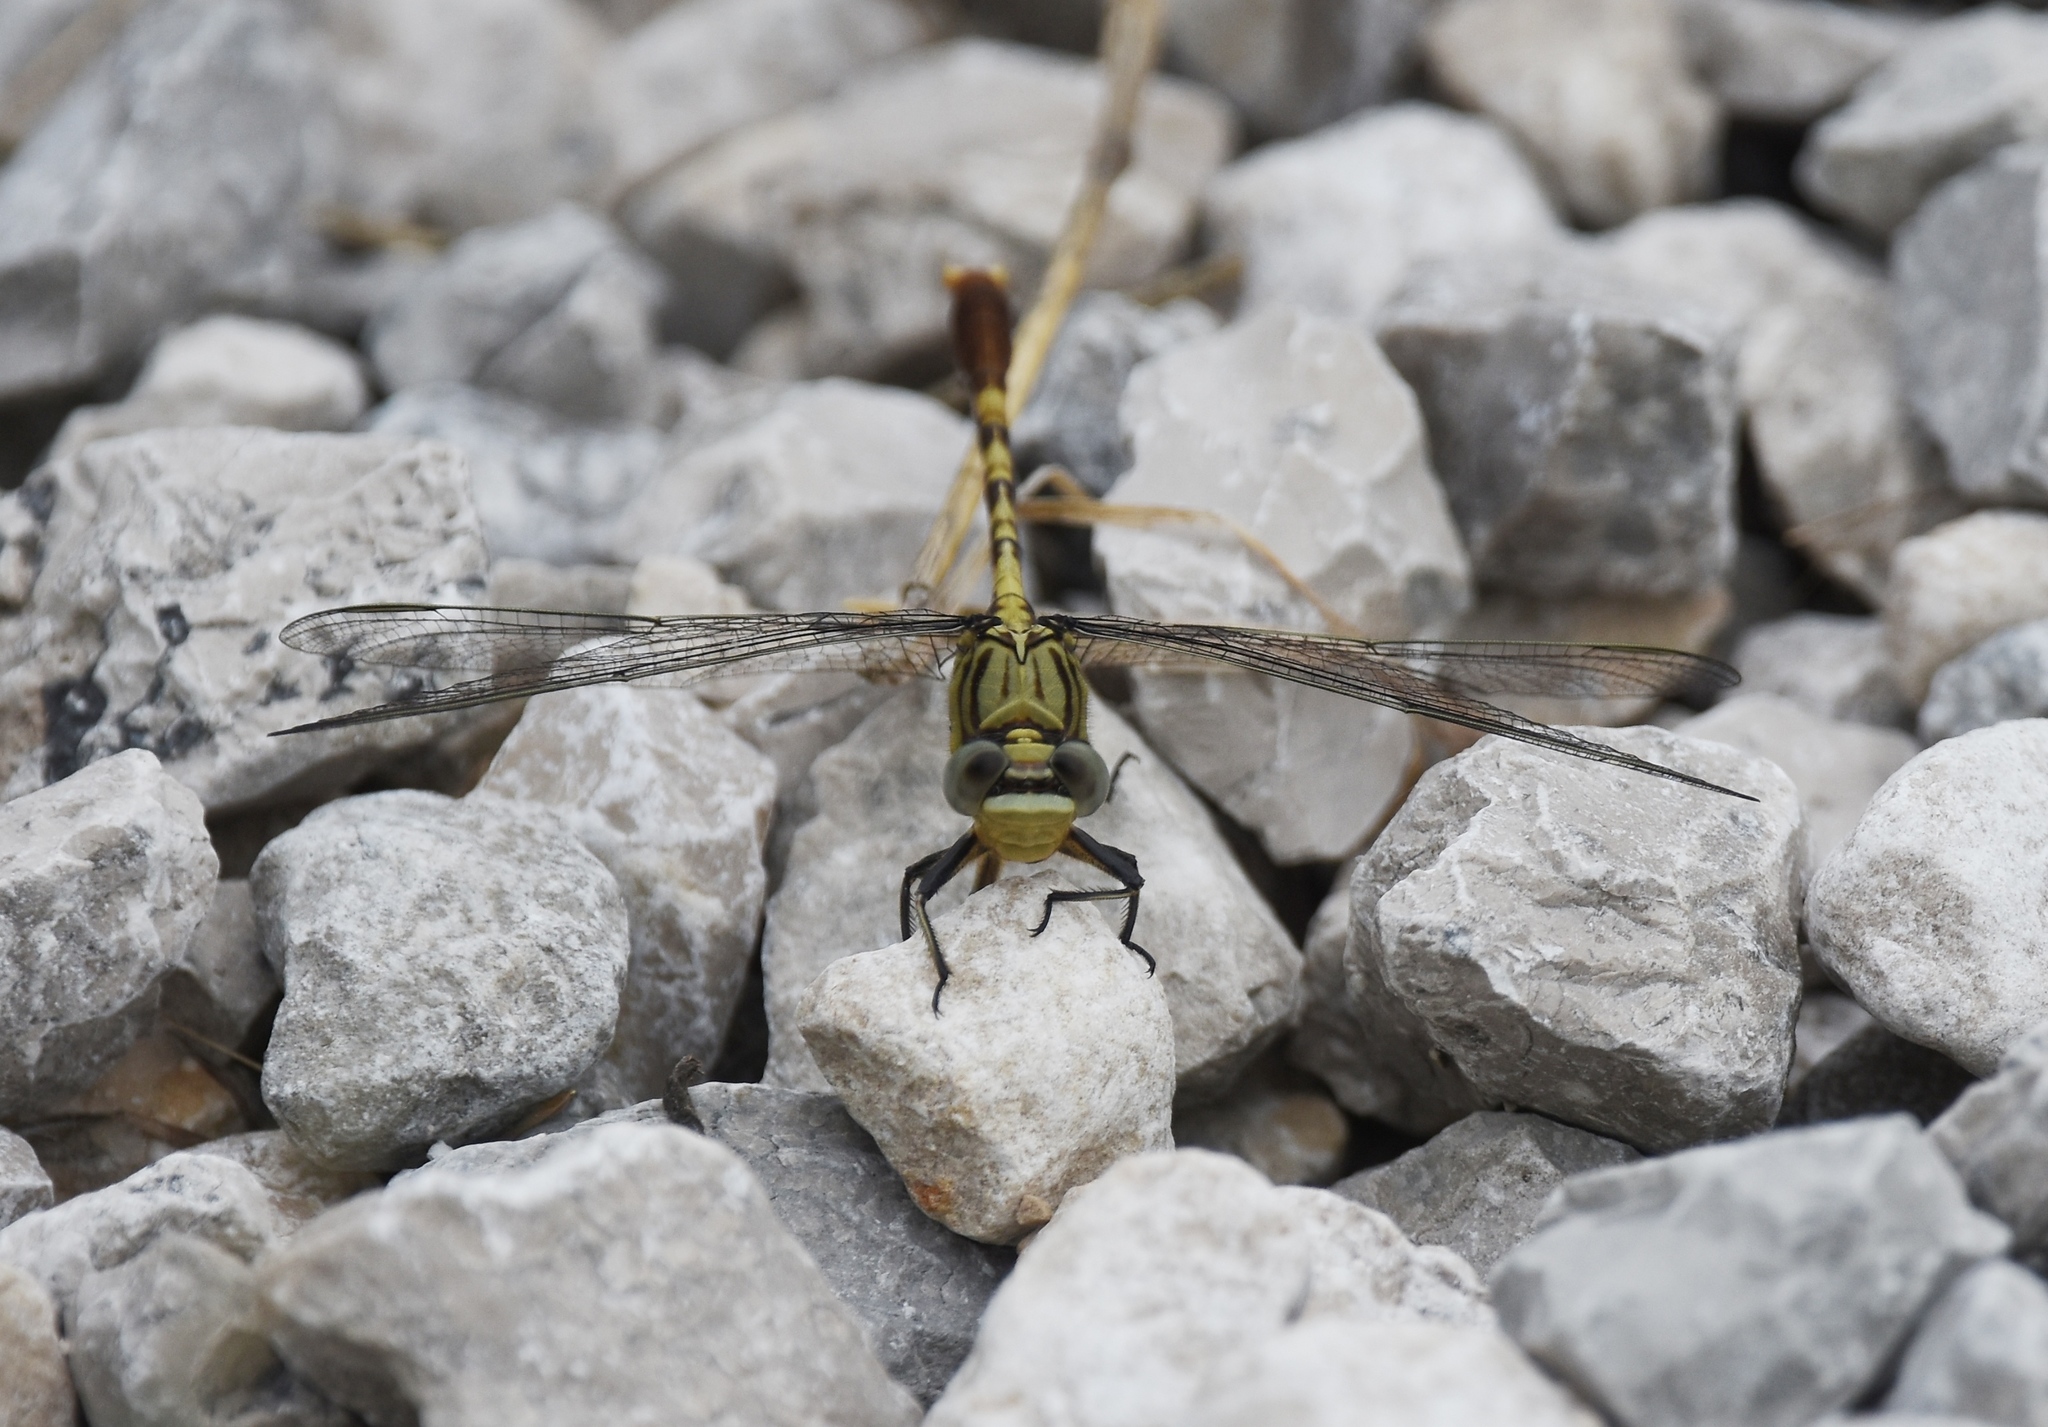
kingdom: Animalia
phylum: Arthropoda
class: Insecta
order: Odonata
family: Gomphidae
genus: Arigomphus
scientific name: Arigomphus submedianus
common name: Jade clubtail
